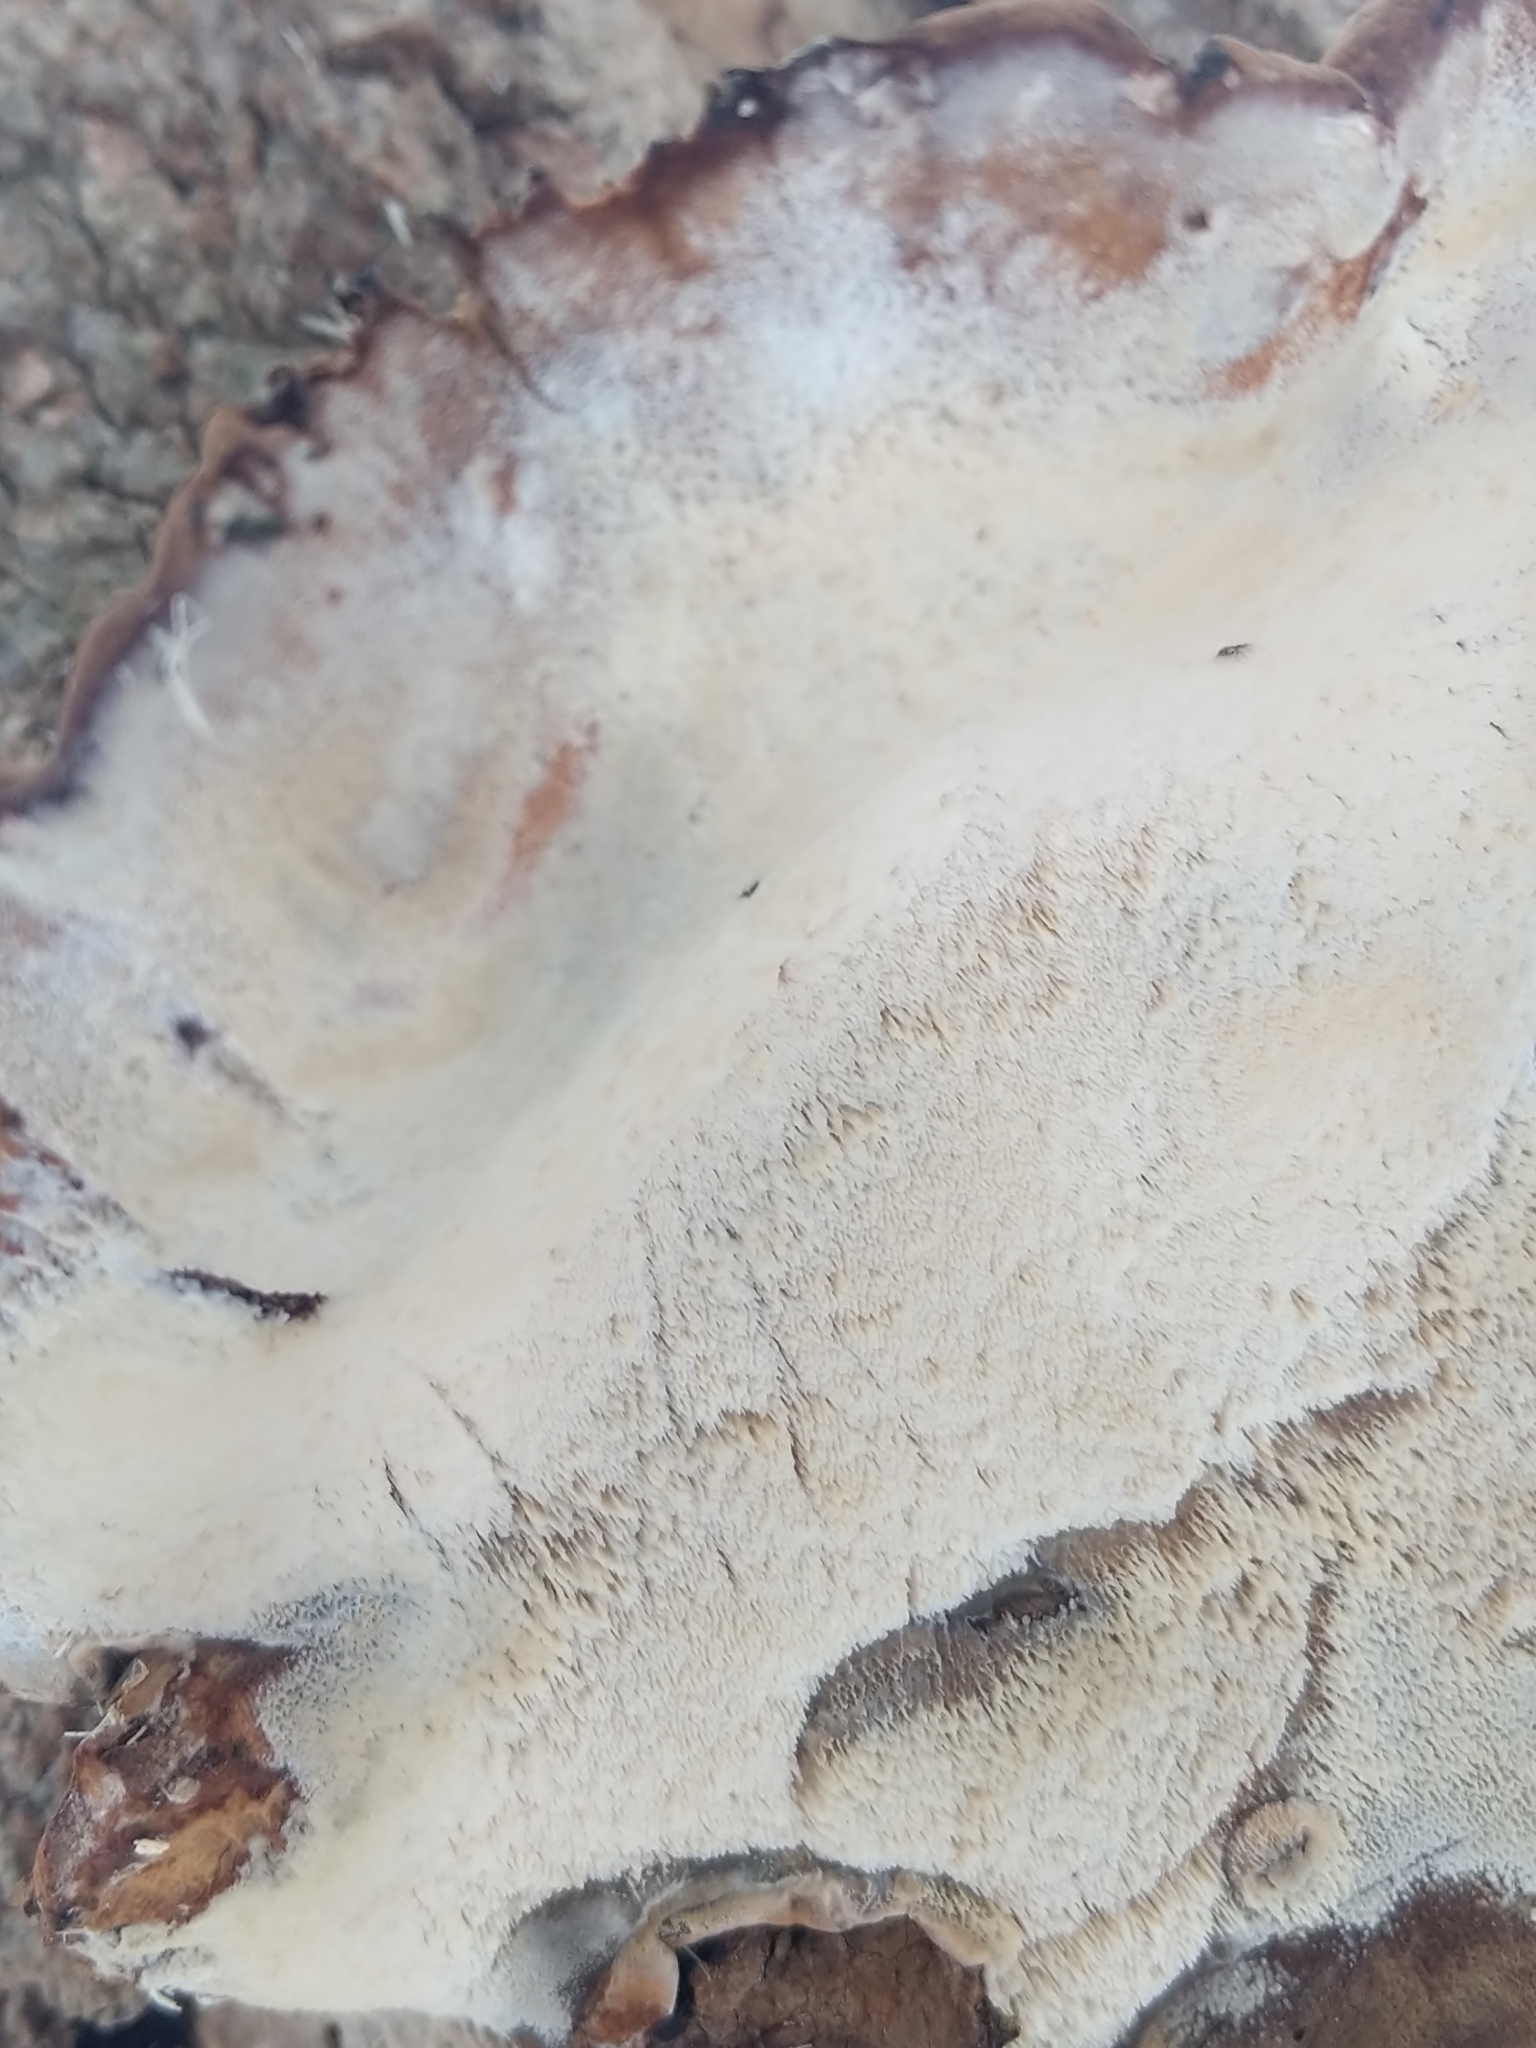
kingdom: Fungi
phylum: Basidiomycota
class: Agaricomycetes
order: Polyporales
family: Ischnodermataceae
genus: Ischnoderma
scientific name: Ischnoderma resinosum
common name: Resinous polypore
